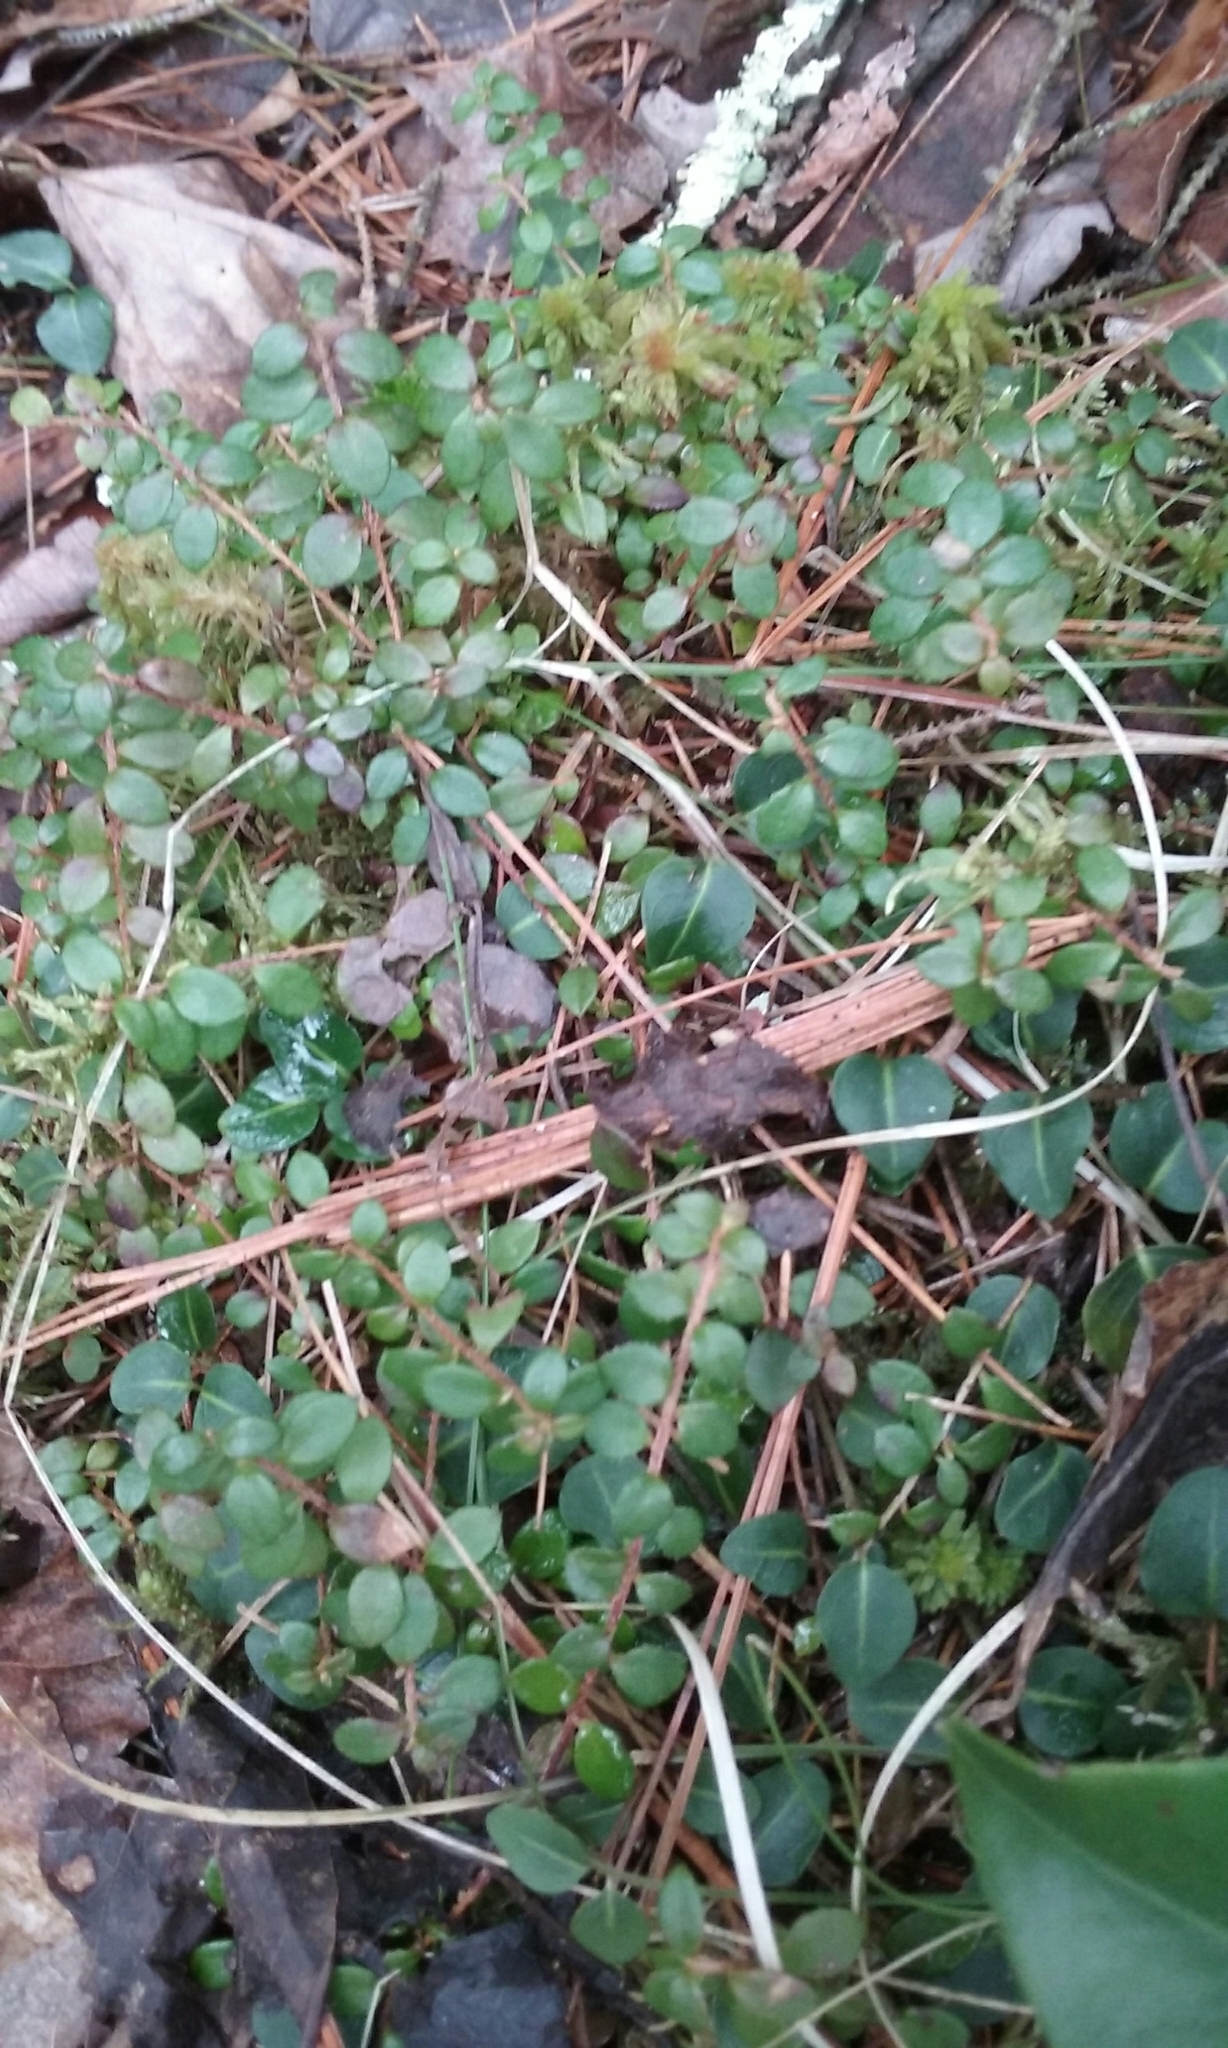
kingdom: Plantae
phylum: Tracheophyta
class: Magnoliopsida
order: Ericales
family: Ericaceae
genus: Gaultheria
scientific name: Gaultheria hispidula
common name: Cancer wintergreen
